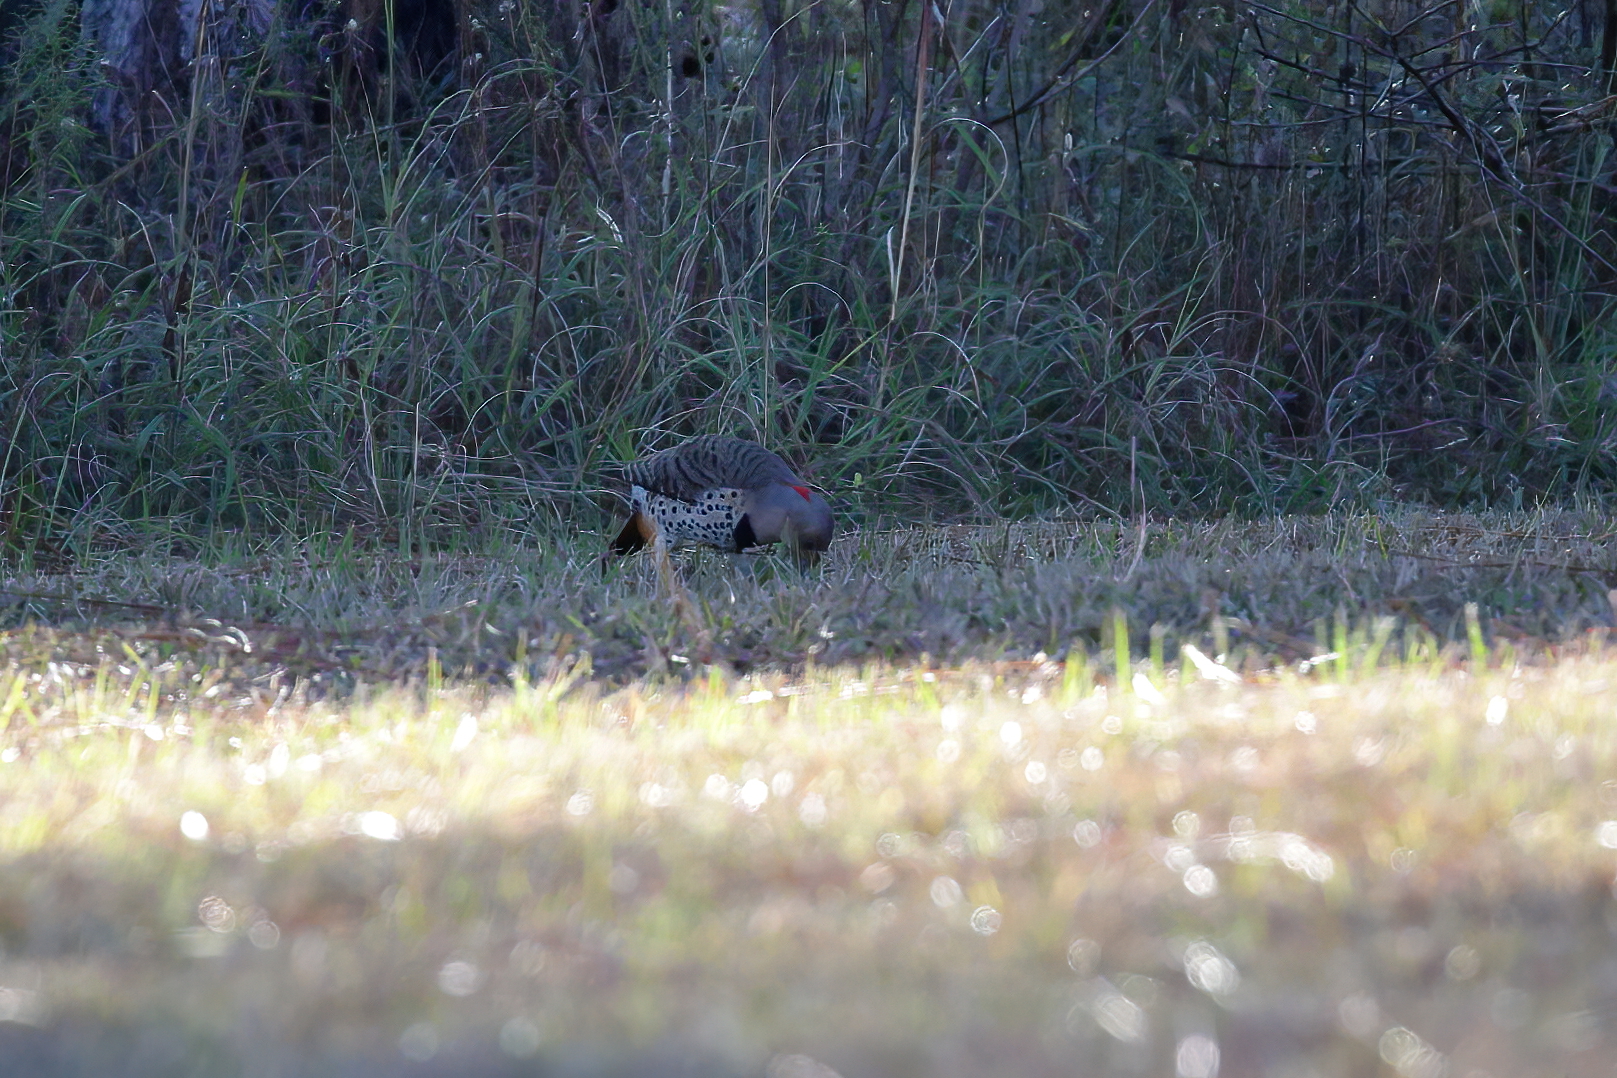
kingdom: Animalia
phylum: Chordata
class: Aves
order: Piciformes
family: Picidae
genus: Colaptes
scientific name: Colaptes auratus
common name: Northern flicker
